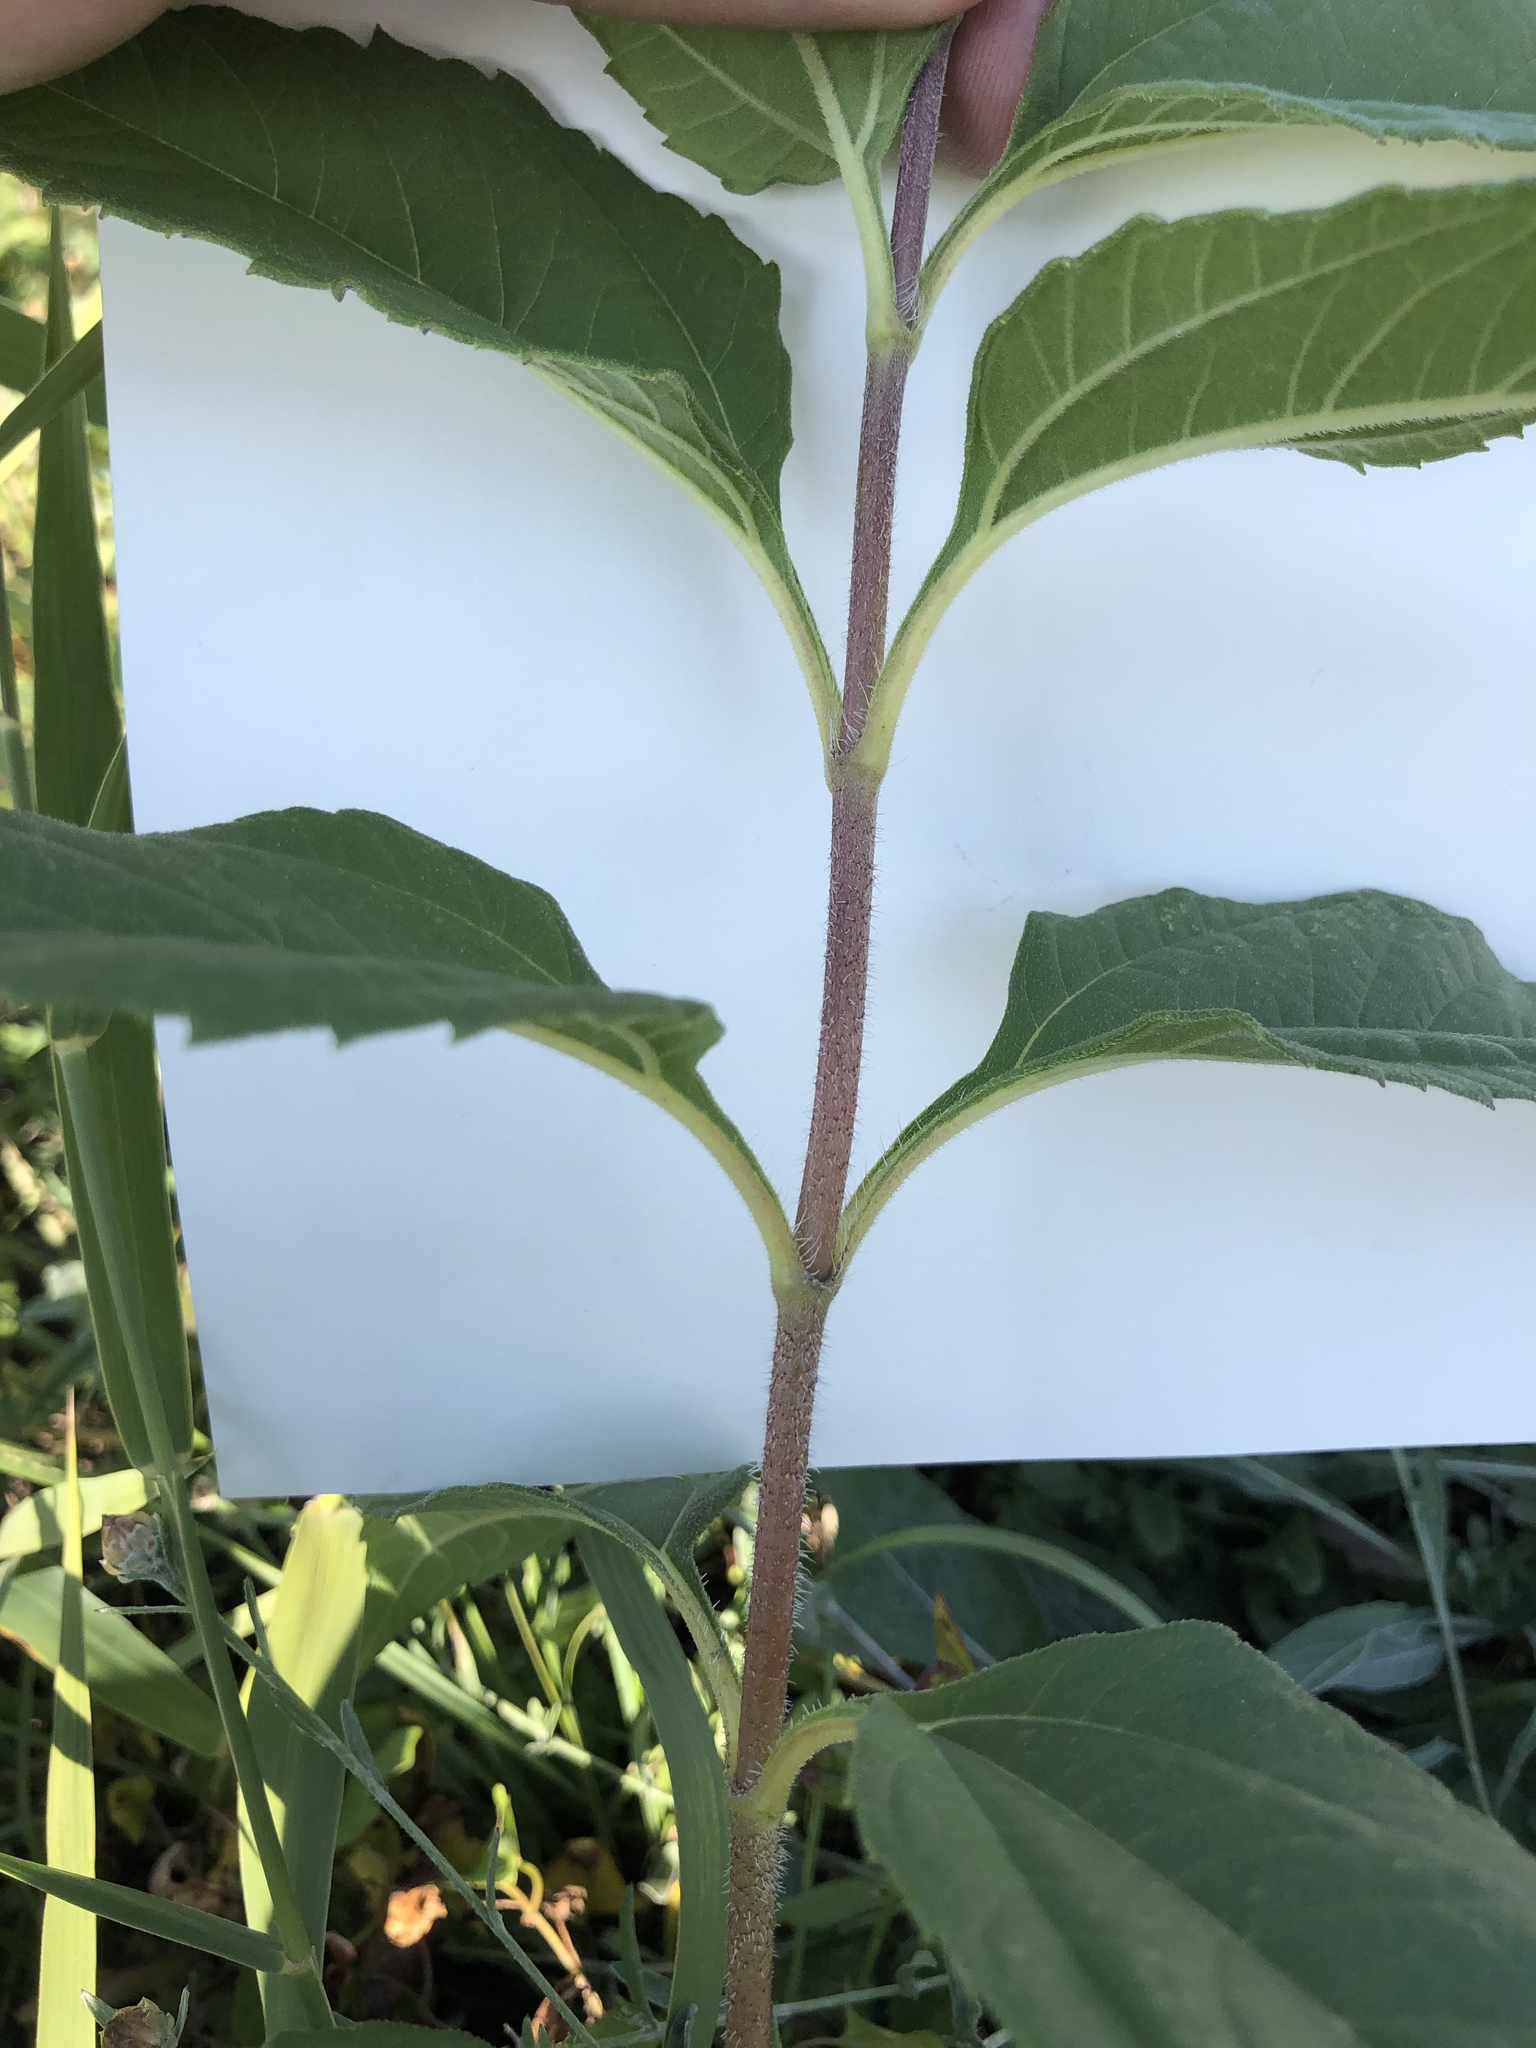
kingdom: Plantae
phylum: Tracheophyta
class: Magnoliopsida
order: Asterales
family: Asteraceae
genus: Helianthus
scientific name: Helianthus tuberosus
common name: Jerusalem artichoke
